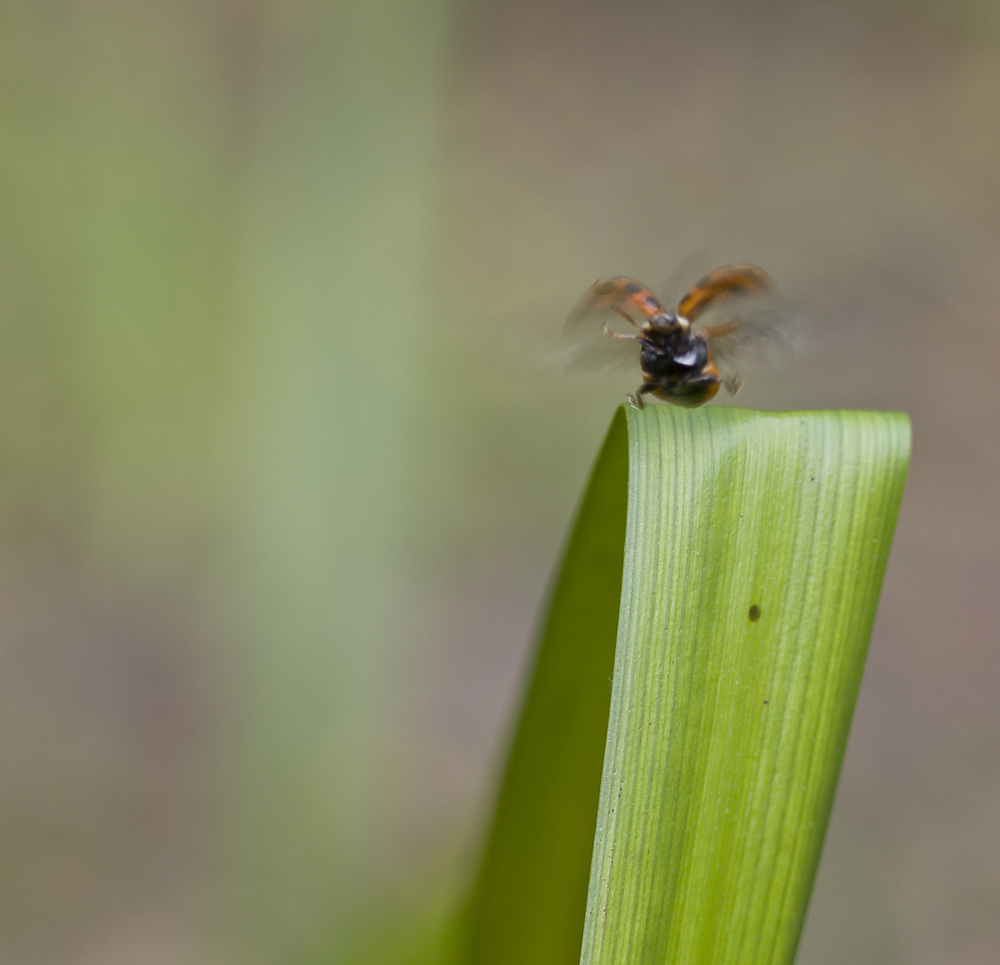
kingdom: Animalia
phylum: Arthropoda
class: Insecta
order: Coleoptera
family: Coccinellidae
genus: Harmonia
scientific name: Harmonia axyridis
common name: Harlequin ladybird
